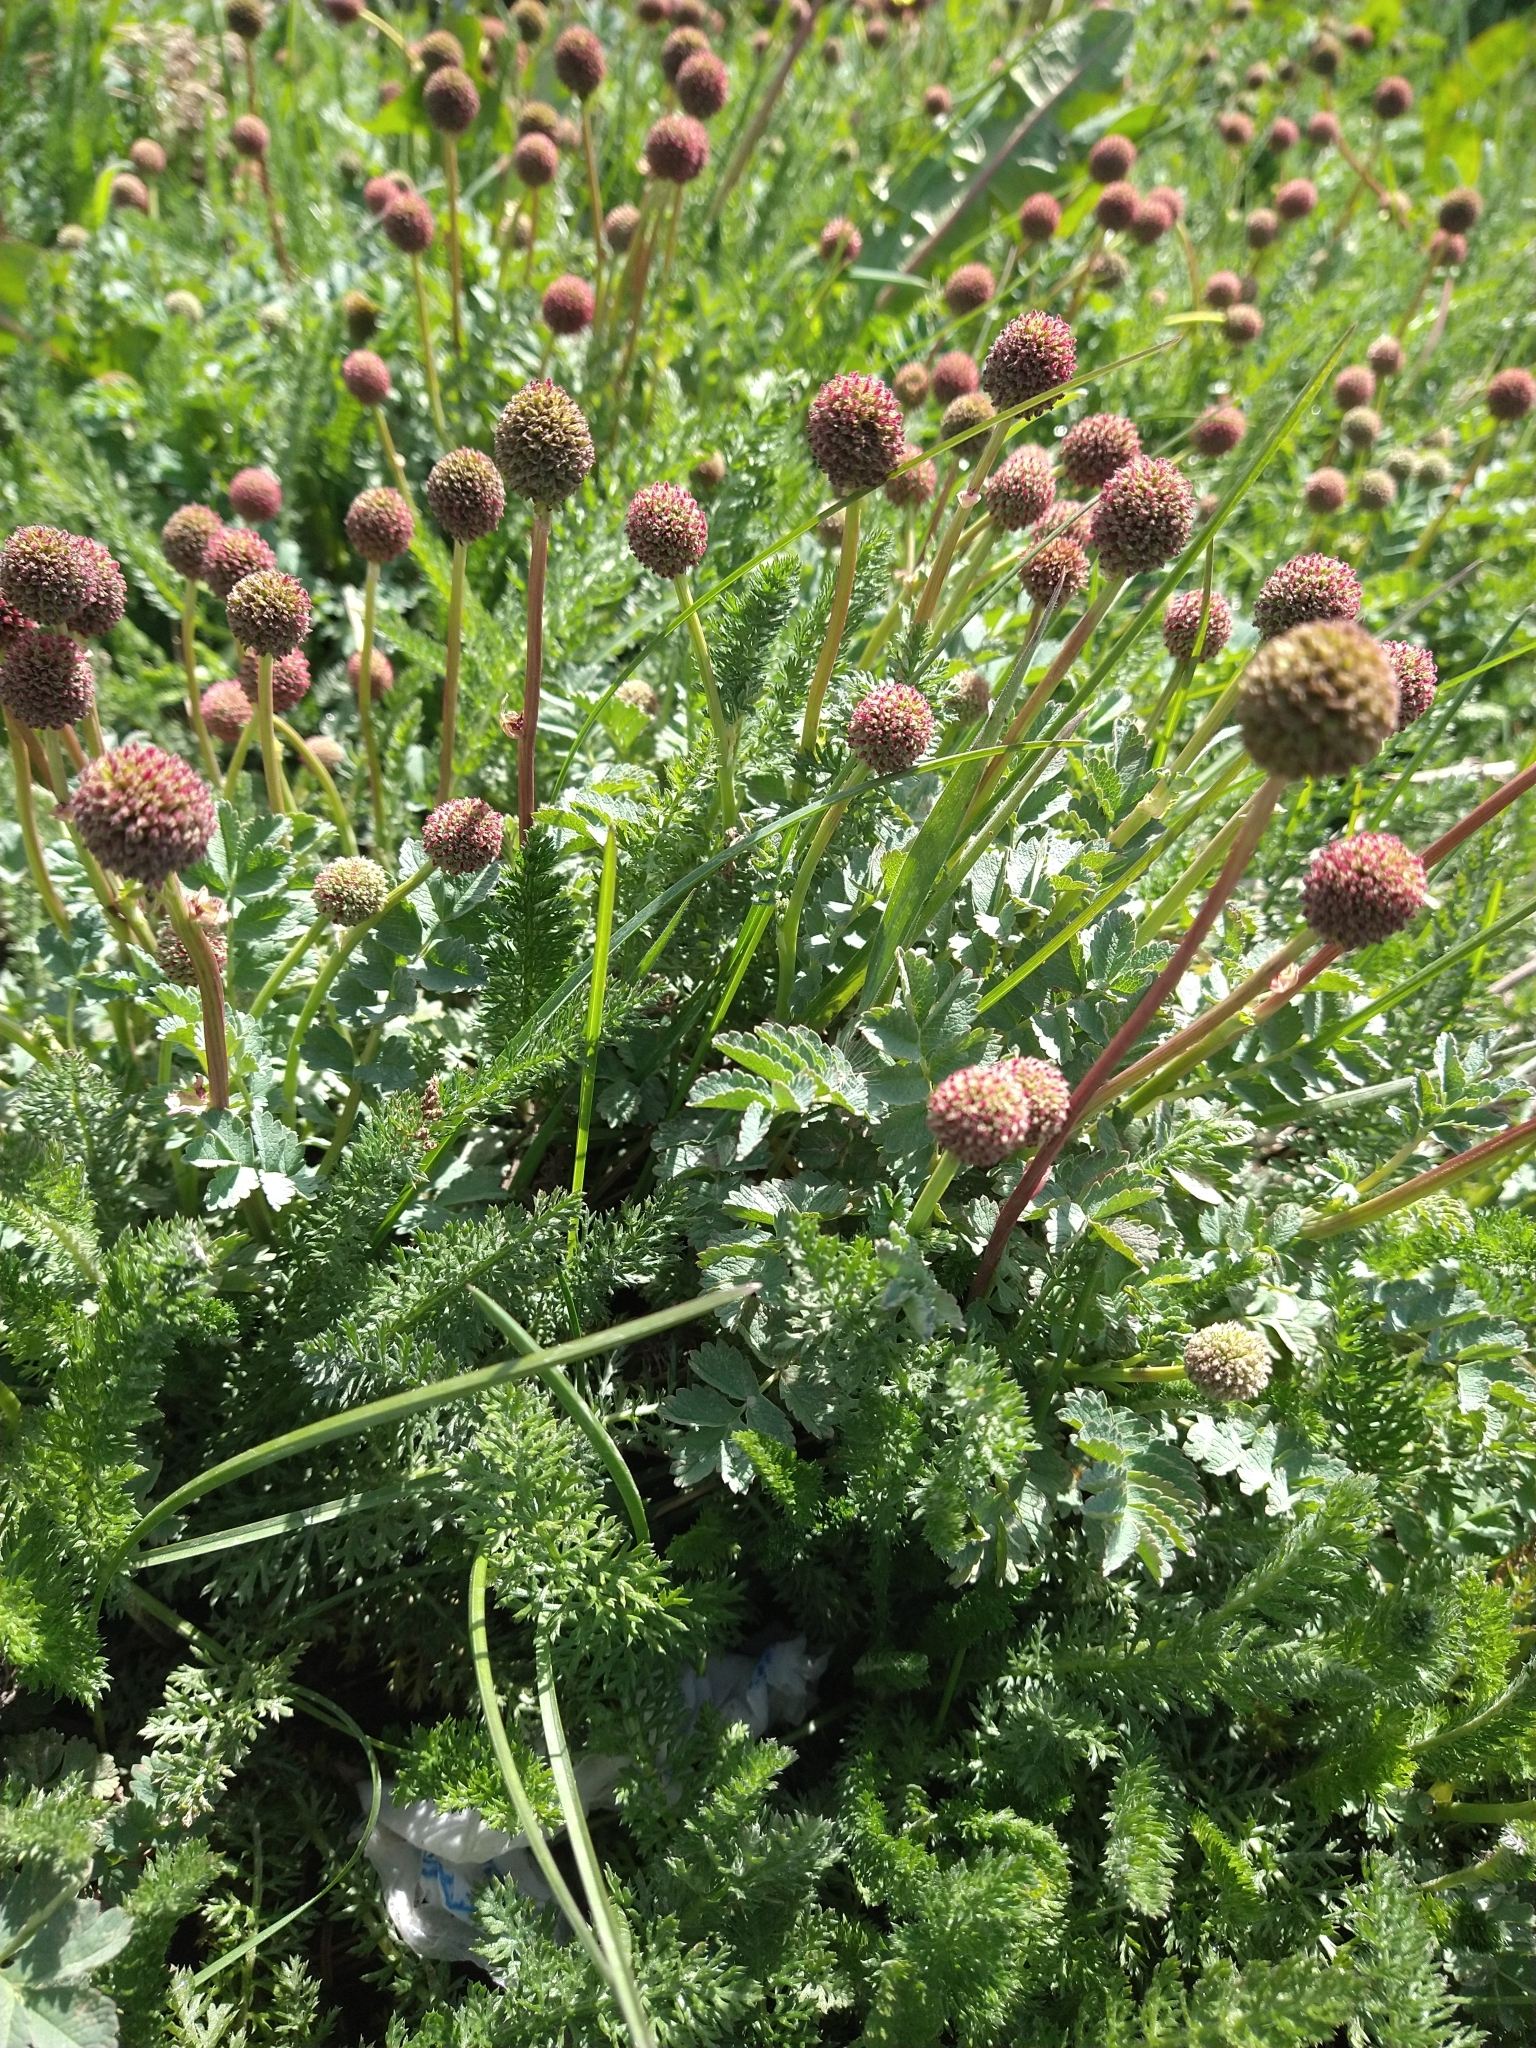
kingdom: Plantae
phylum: Tracheophyta
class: Magnoliopsida
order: Rosales
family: Rosaceae
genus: Acaena
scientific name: Acaena magellanica
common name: New zealand burr
